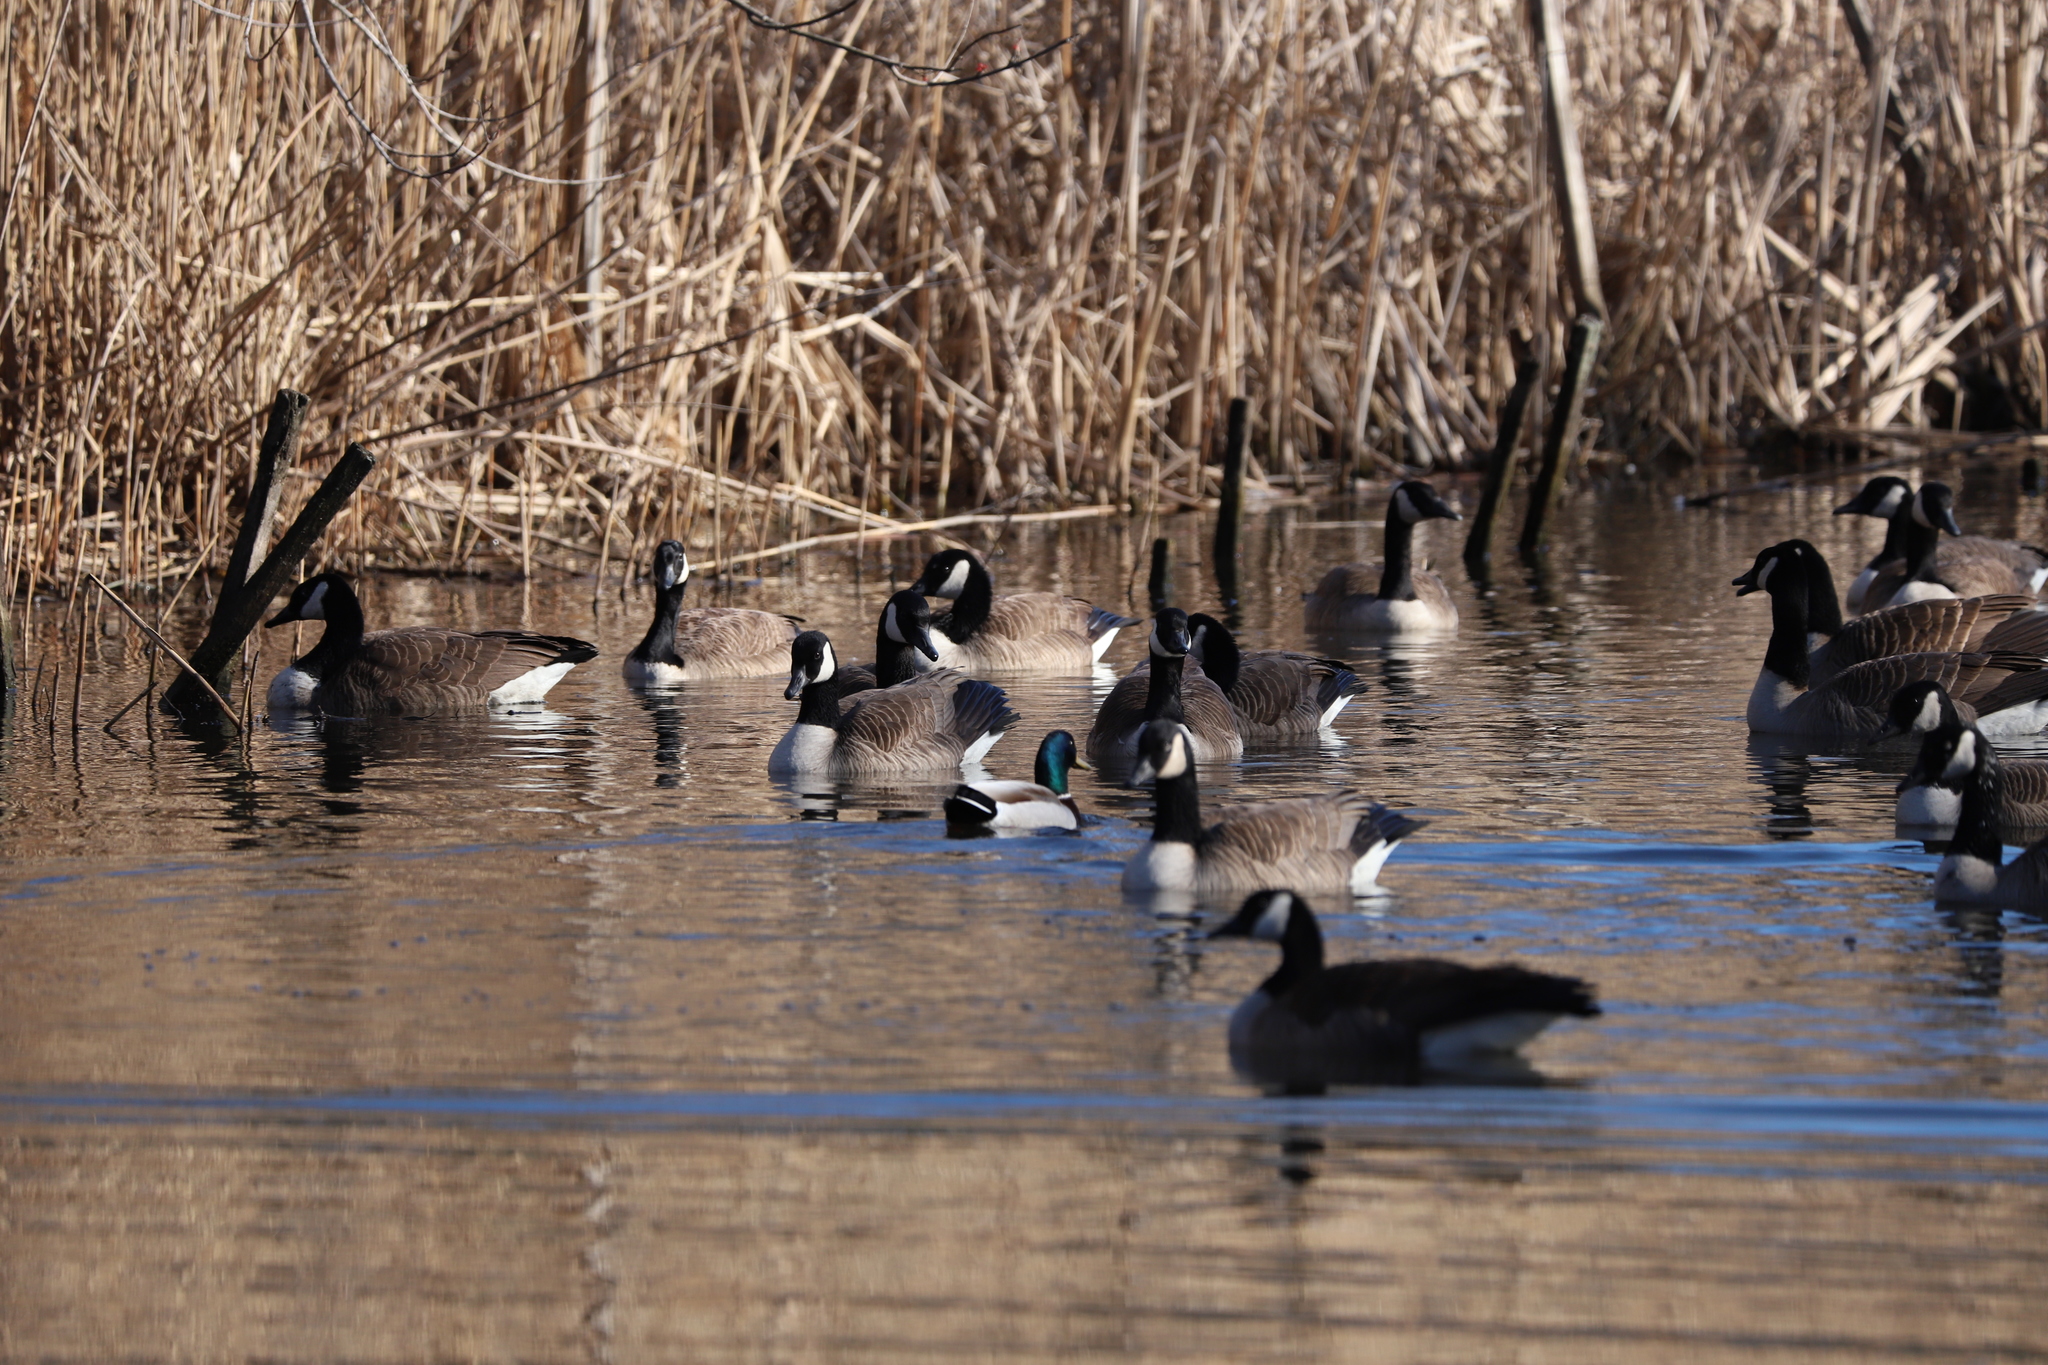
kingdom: Animalia
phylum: Chordata
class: Aves
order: Anseriformes
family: Anatidae
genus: Branta
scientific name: Branta canadensis
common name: Canada goose
